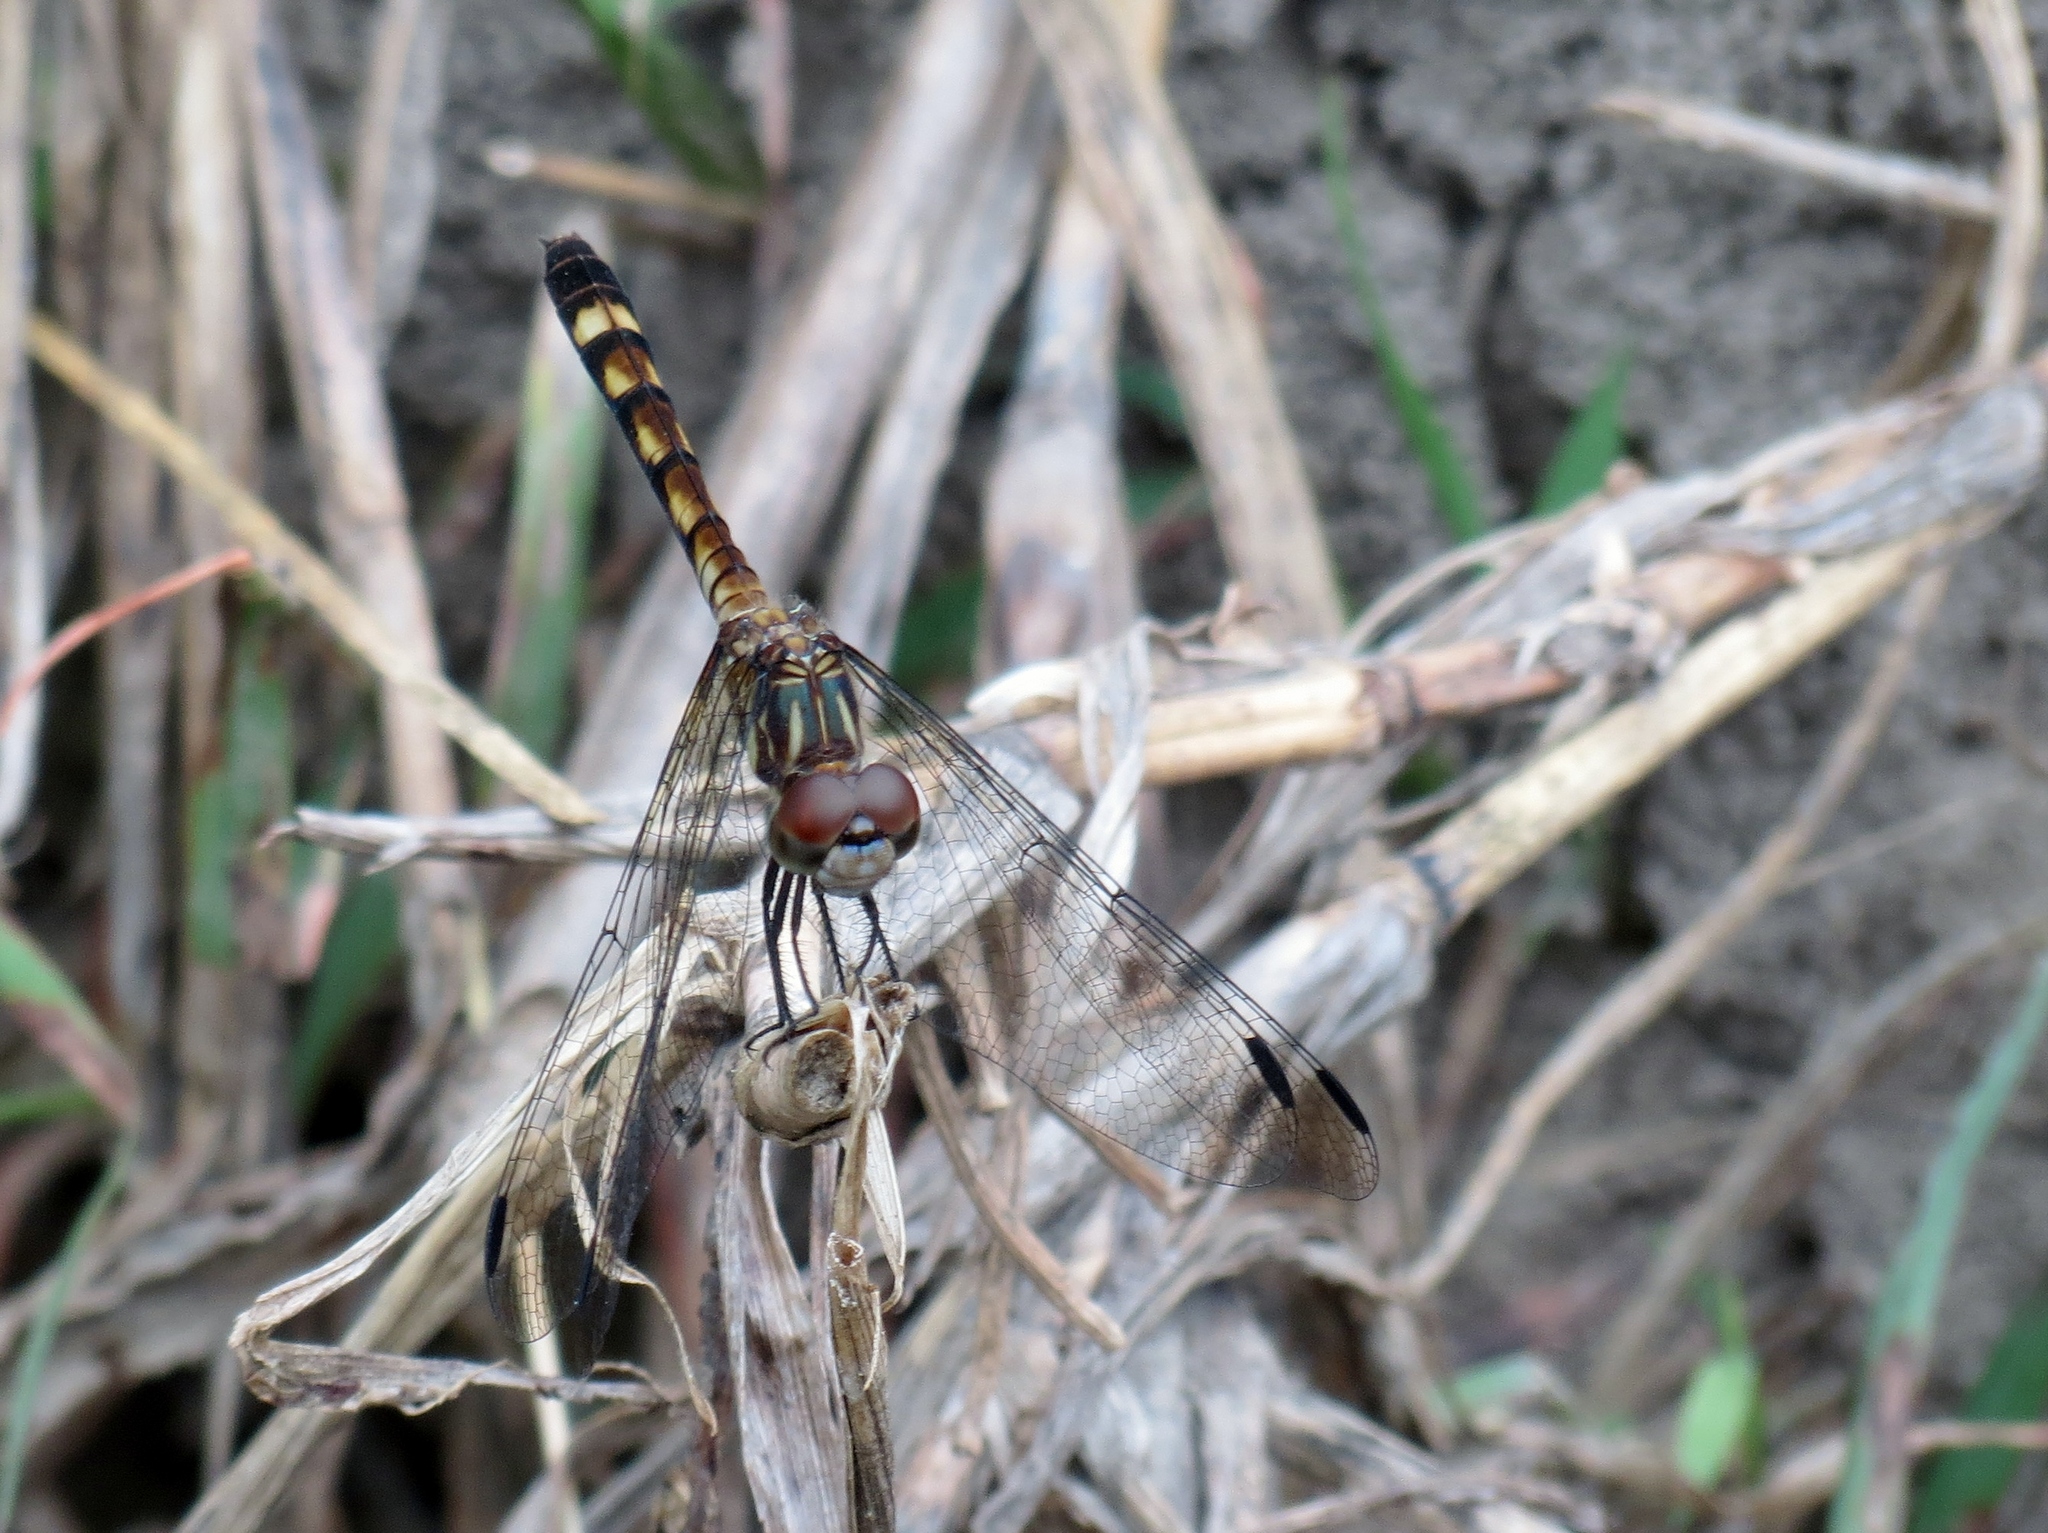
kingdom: Animalia
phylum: Arthropoda
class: Insecta
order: Odonata
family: Libellulidae
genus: Micrathyria
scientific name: Micrathyria hagenii
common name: Thornbush dasher
